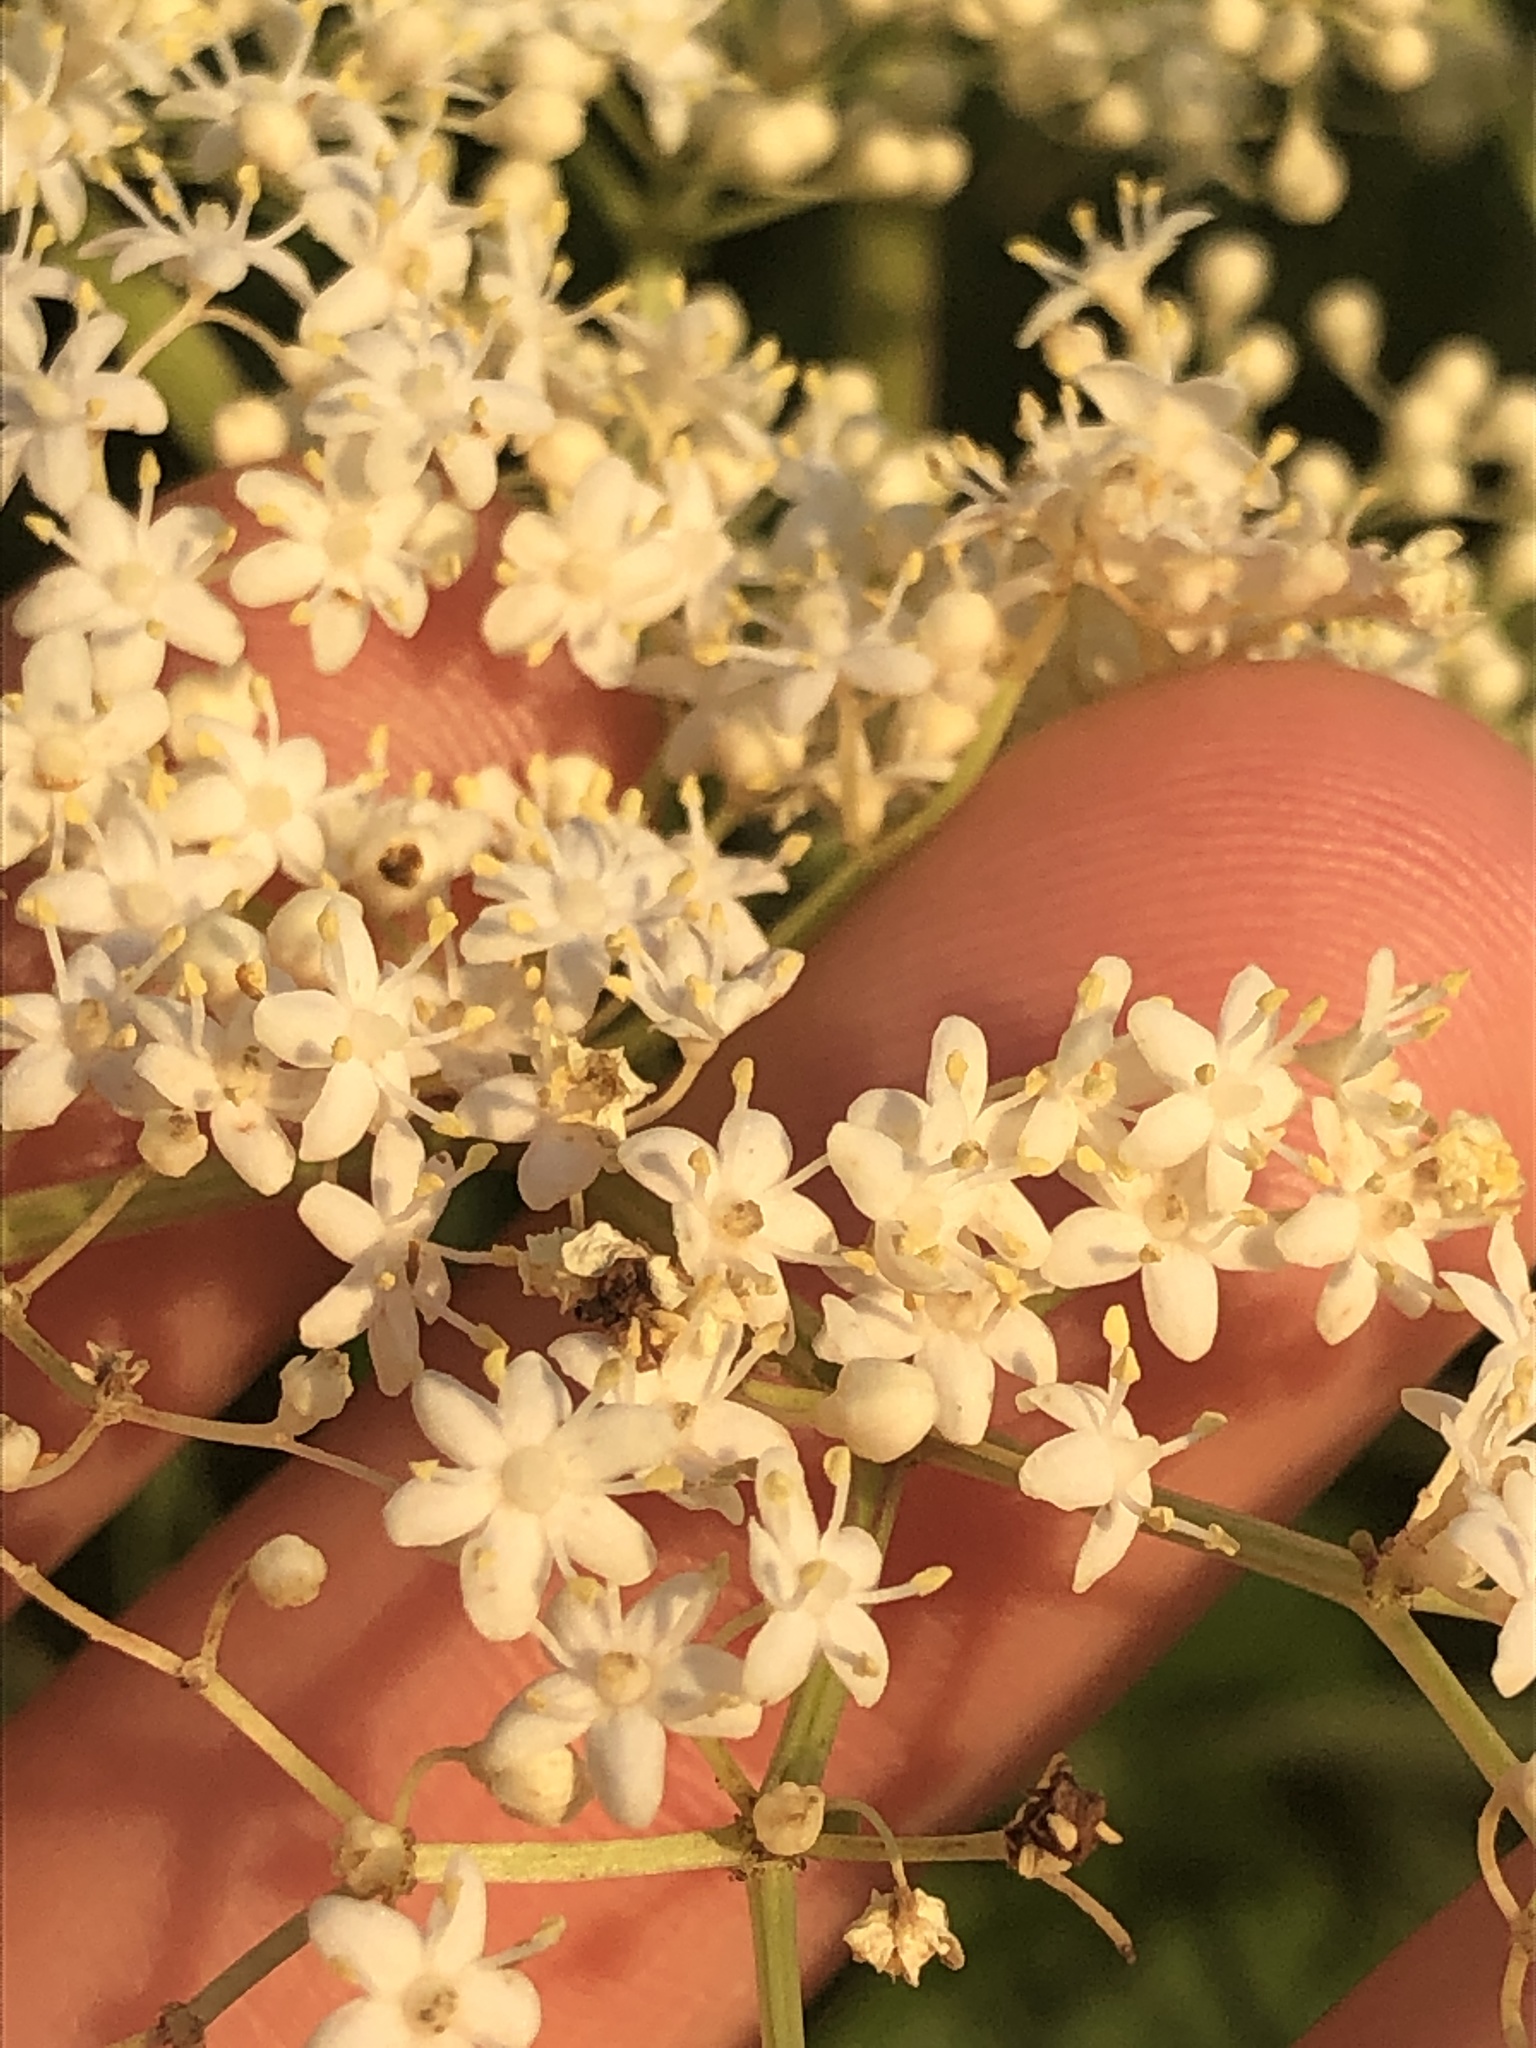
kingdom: Plantae
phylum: Tracheophyta
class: Magnoliopsida
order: Dipsacales
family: Viburnaceae
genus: Sambucus
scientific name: Sambucus canadensis
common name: American elder
